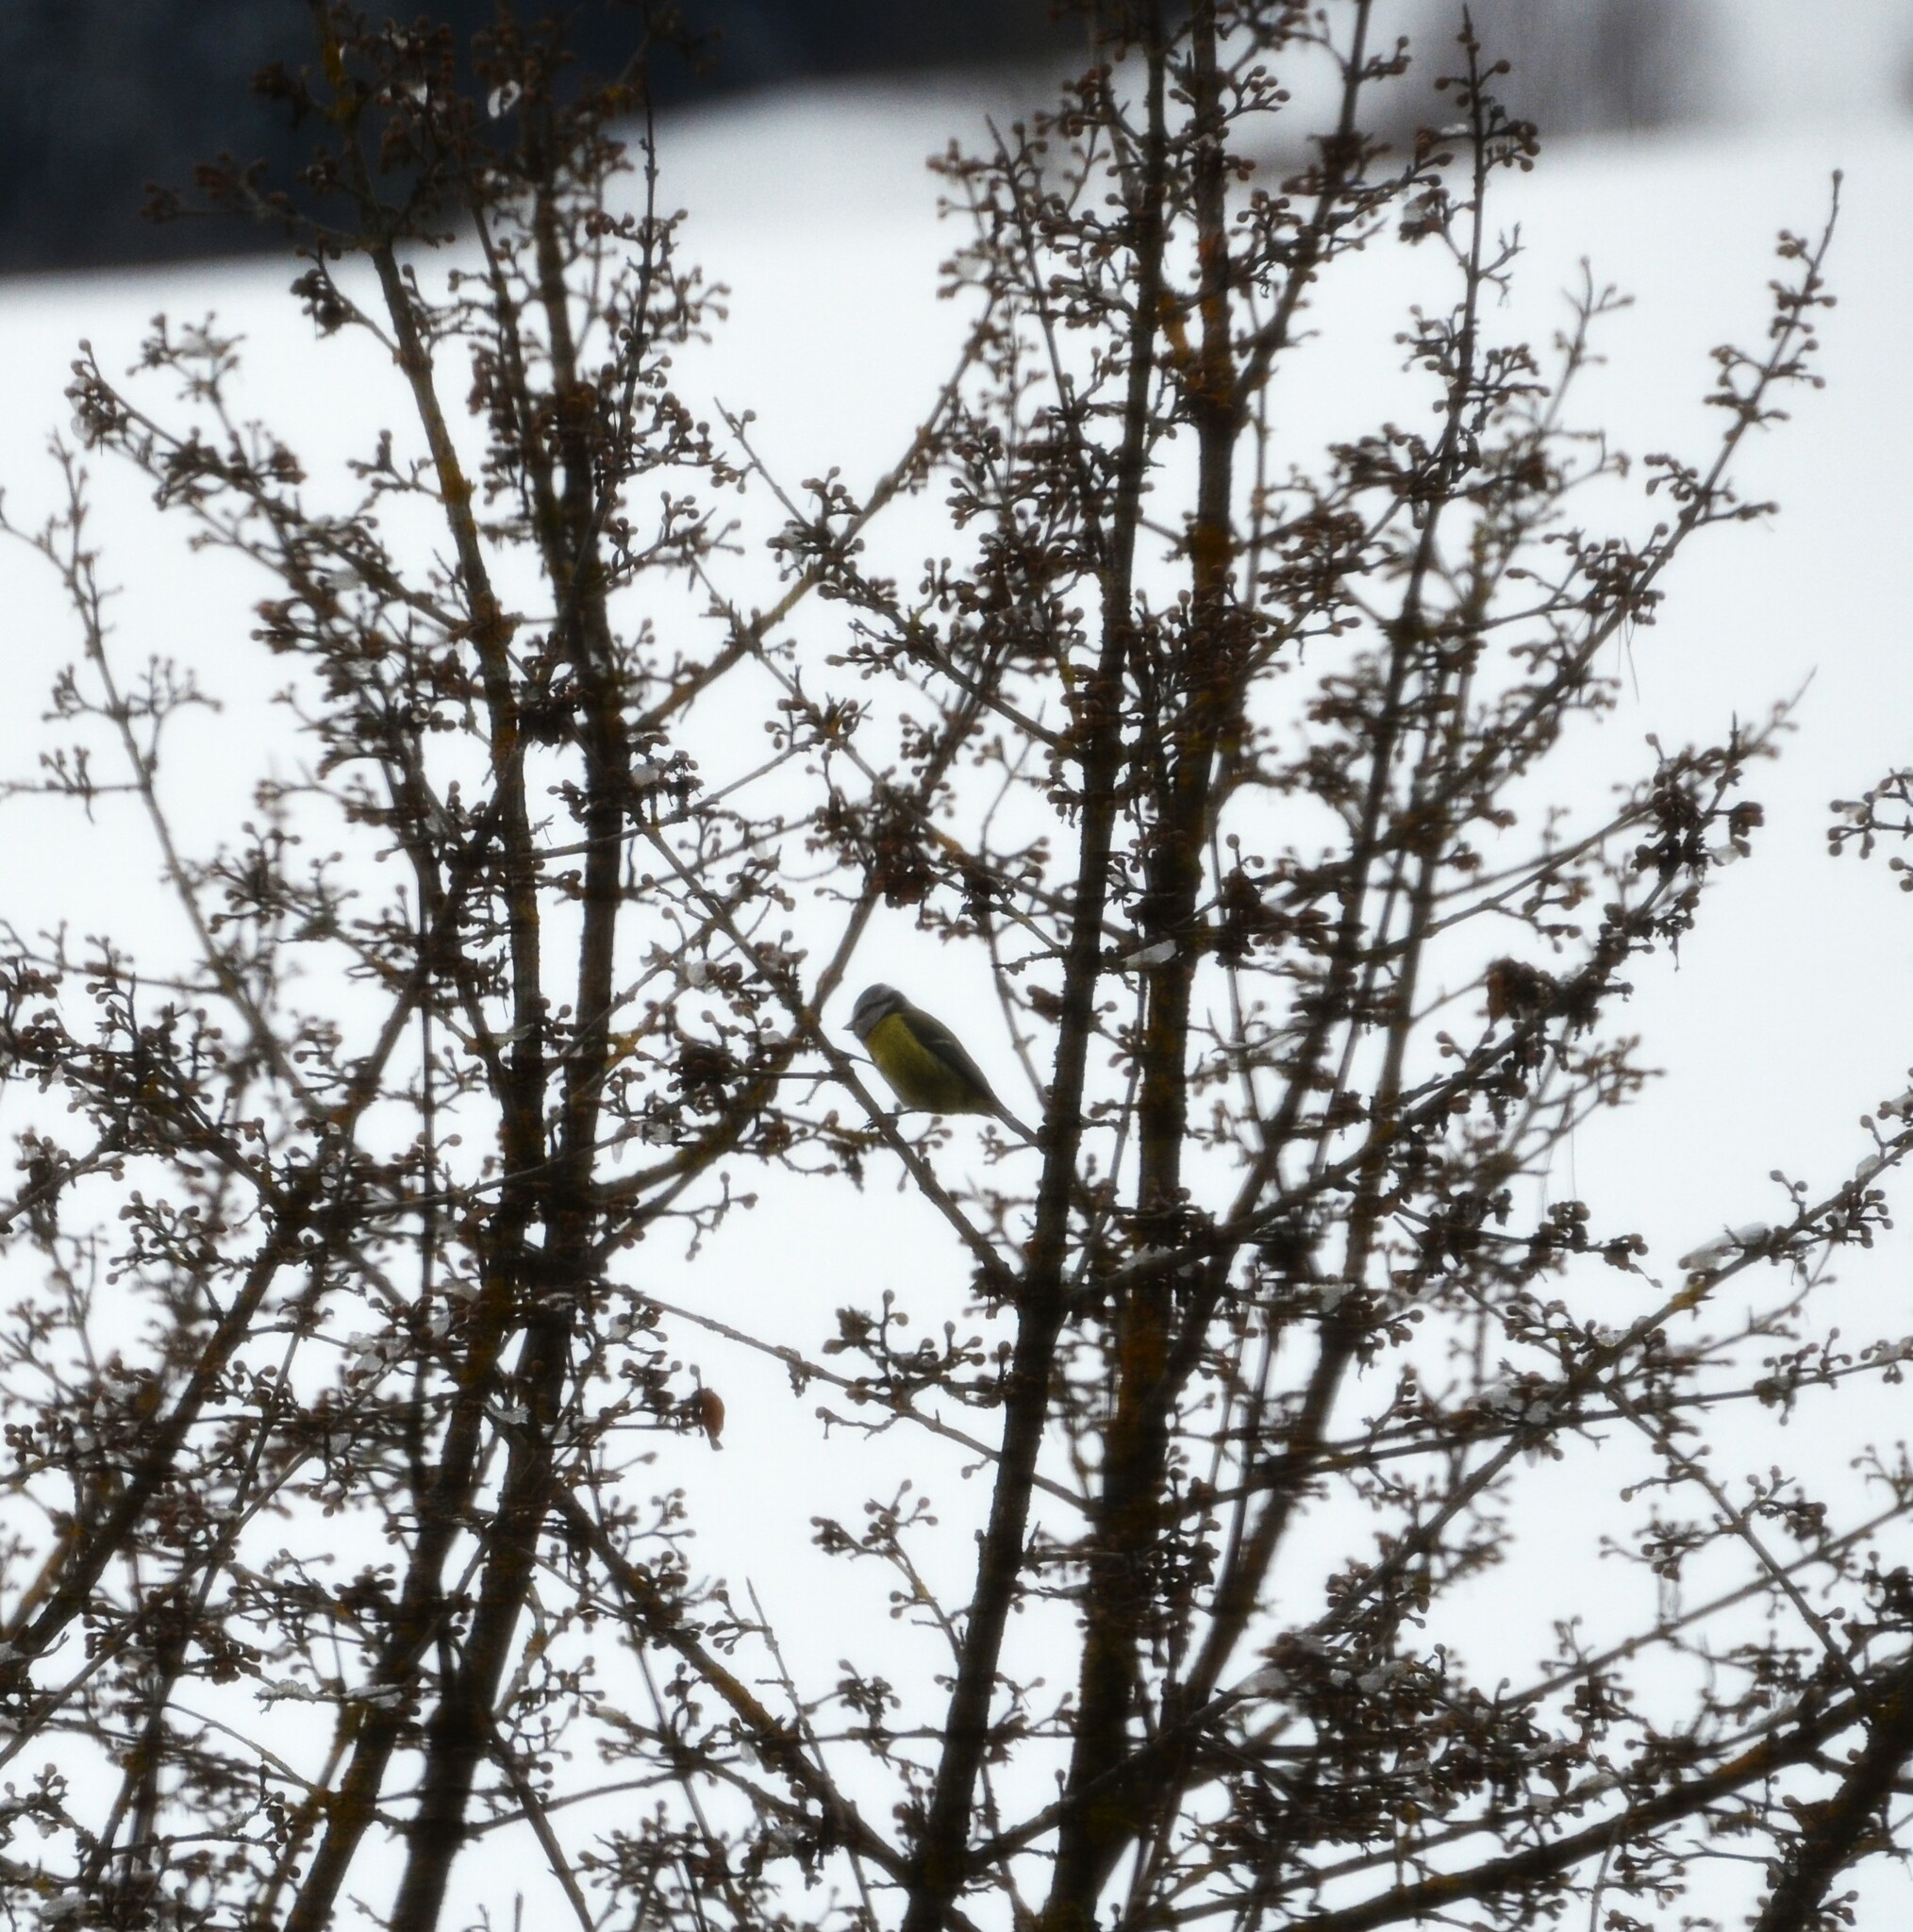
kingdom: Animalia
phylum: Chordata
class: Aves
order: Passeriformes
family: Paridae
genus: Cyanistes
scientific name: Cyanistes caeruleus
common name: Eurasian blue tit
